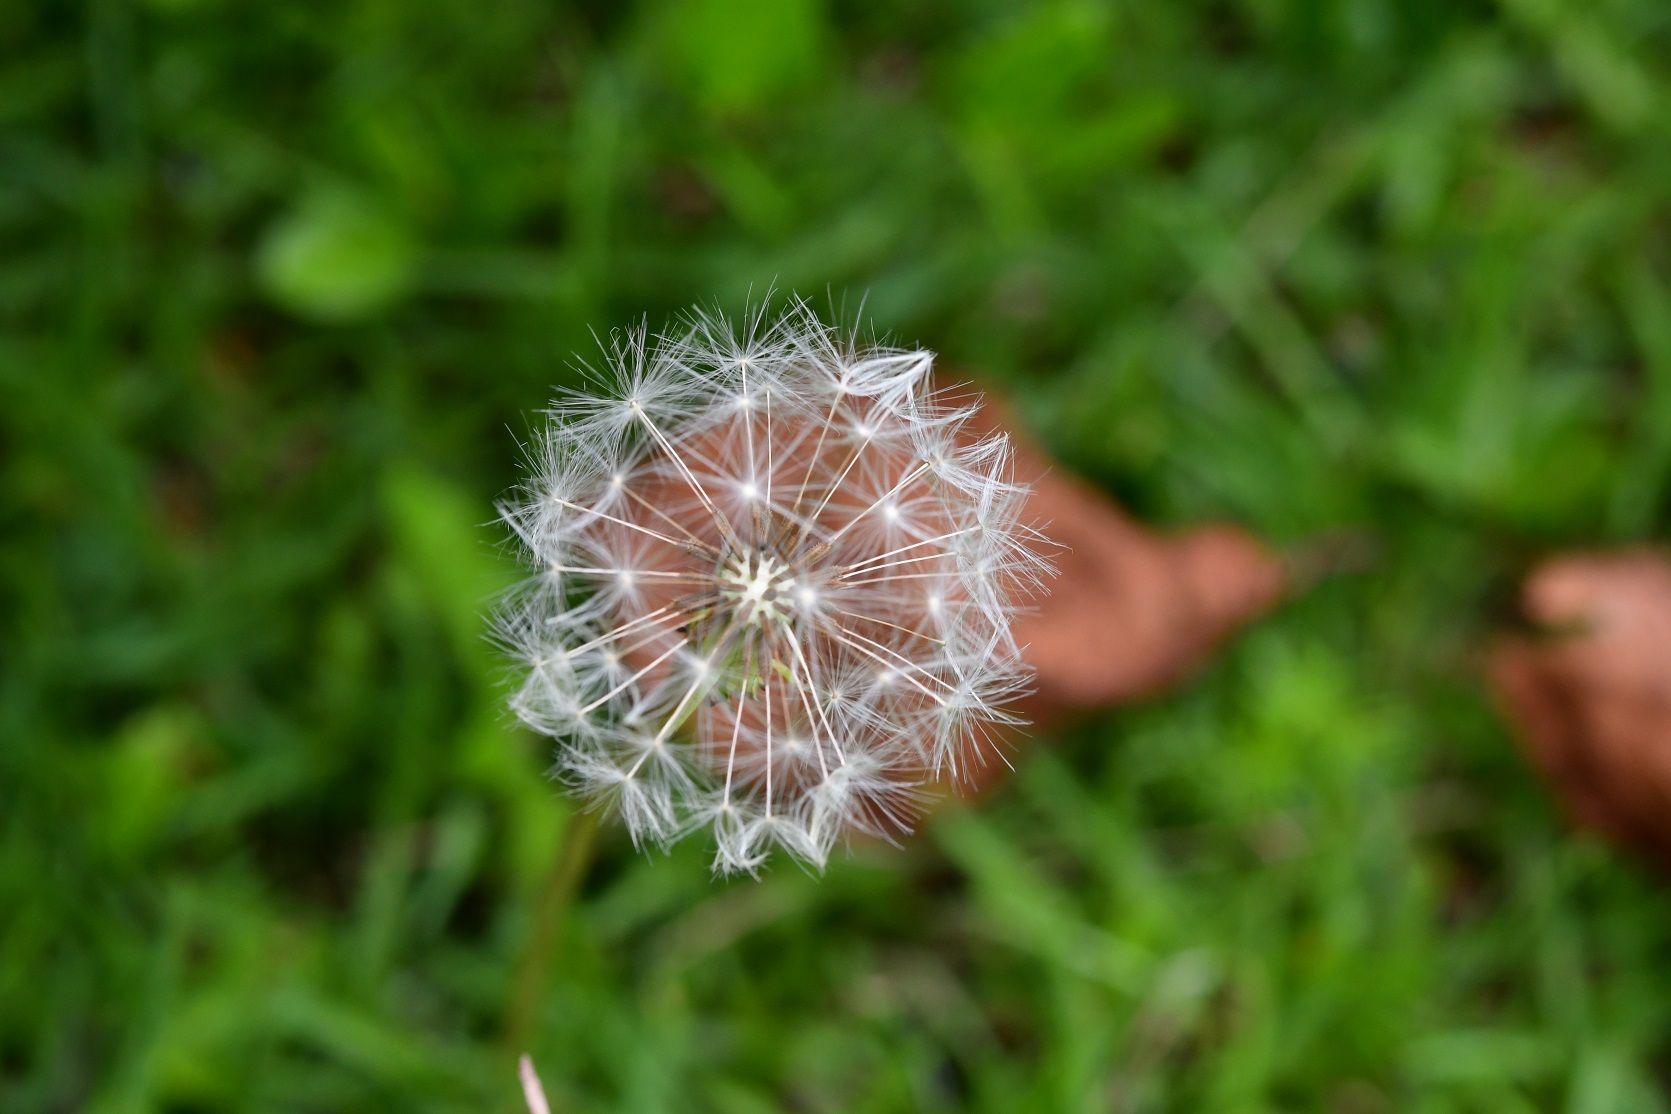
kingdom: Plantae
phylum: Tracheophyta
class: Magnoliopsida
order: Asterales
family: Asteraceae
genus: Taraxacum
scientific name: Taraxacum officinale
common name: Common dandelion
